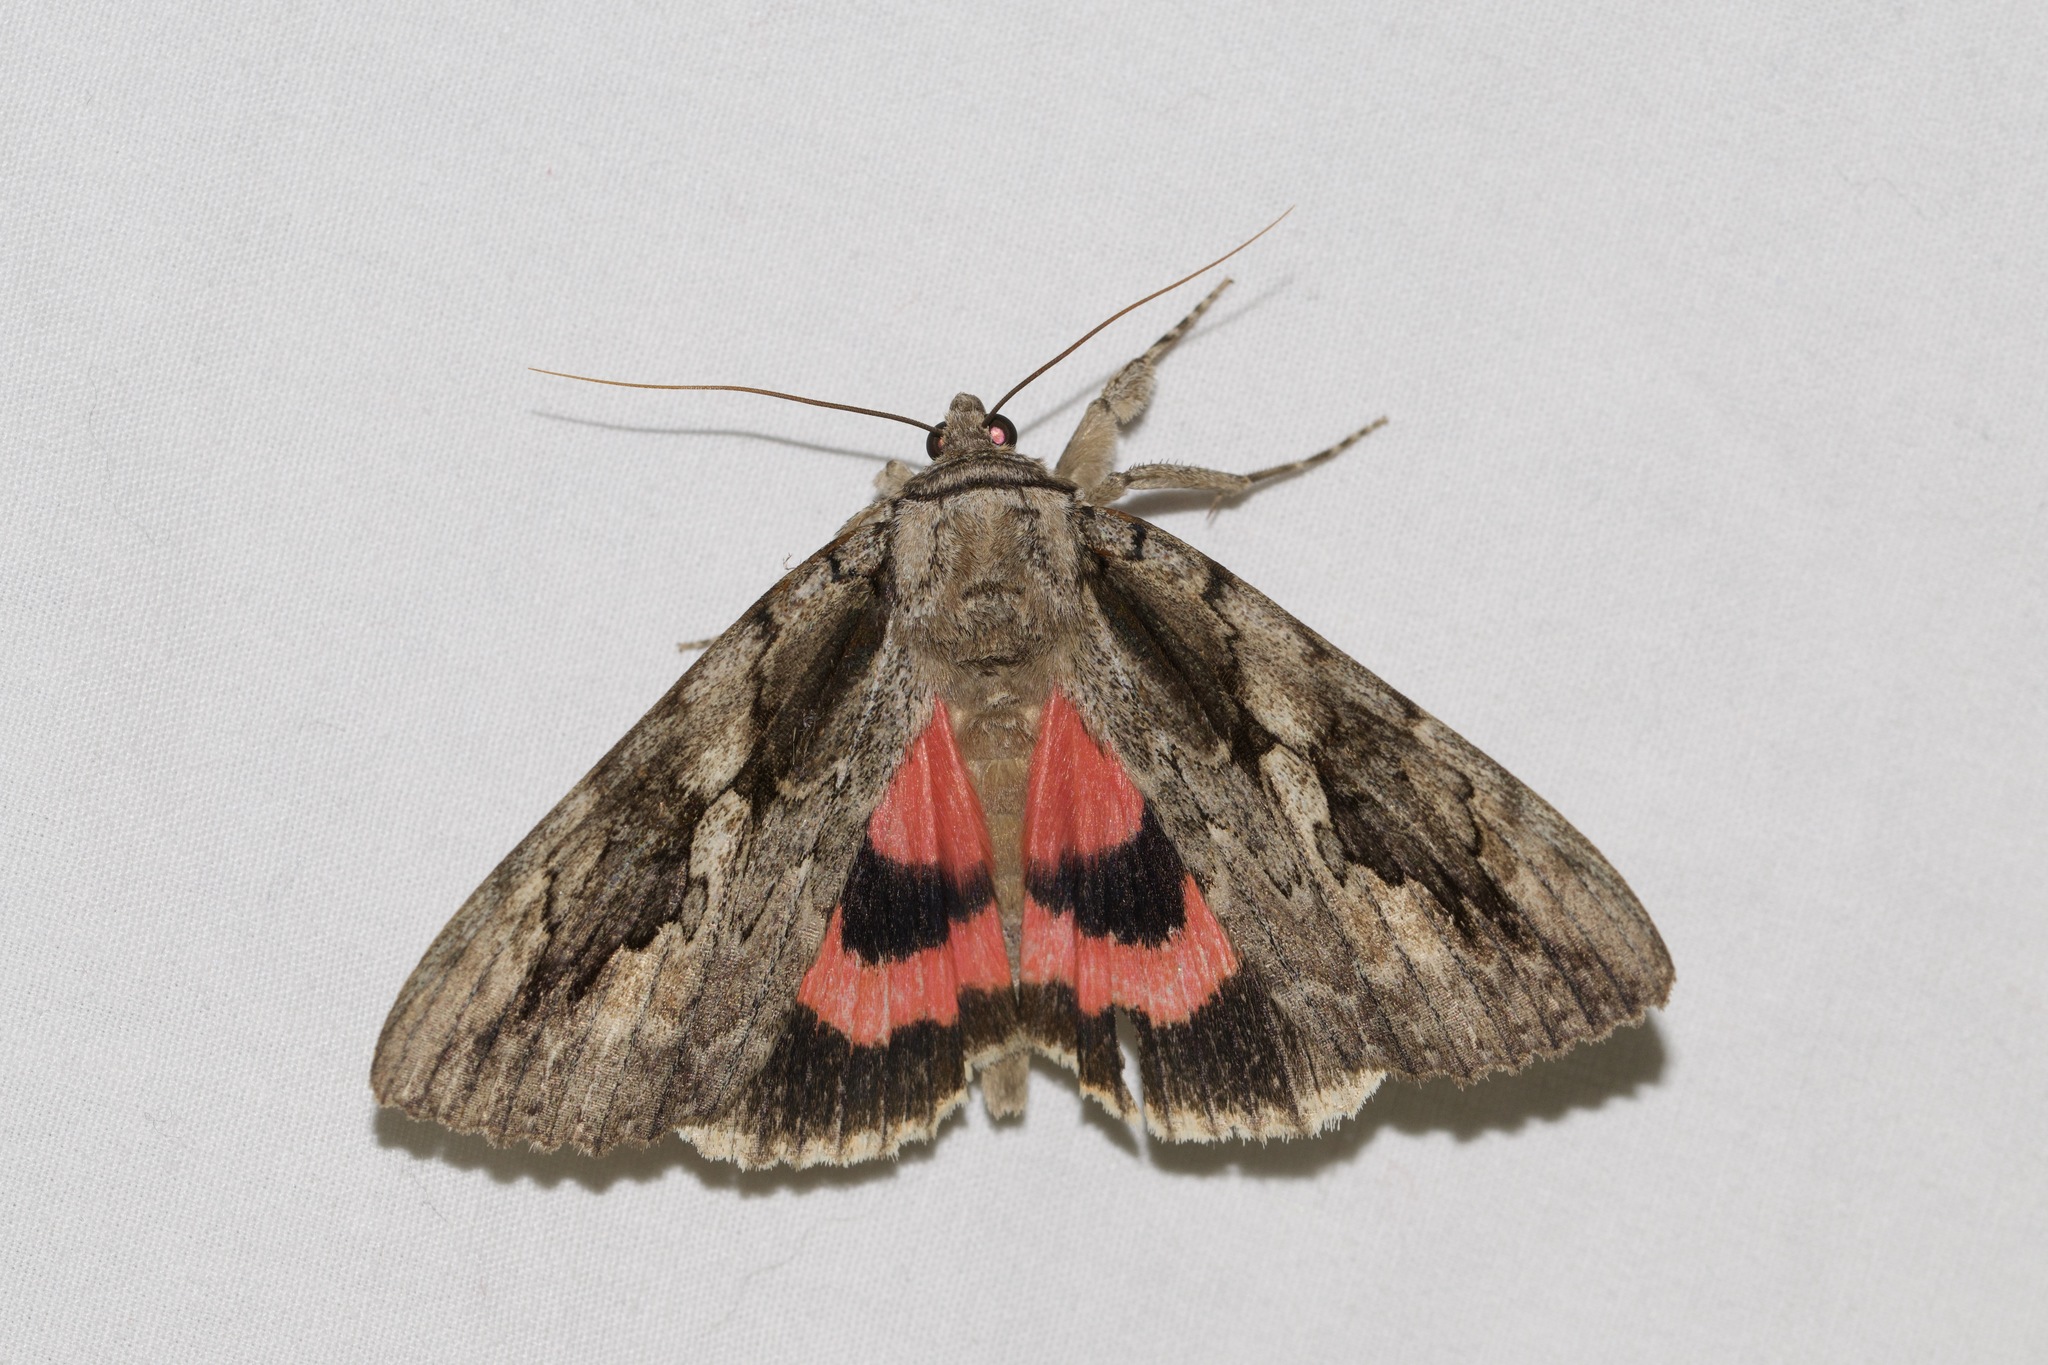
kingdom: Animalia
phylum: Arthropoda
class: Insecta
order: Lepidoptera
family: Erebidae
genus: Catocala
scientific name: Catocala amatrix
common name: Sweetheart underwing
